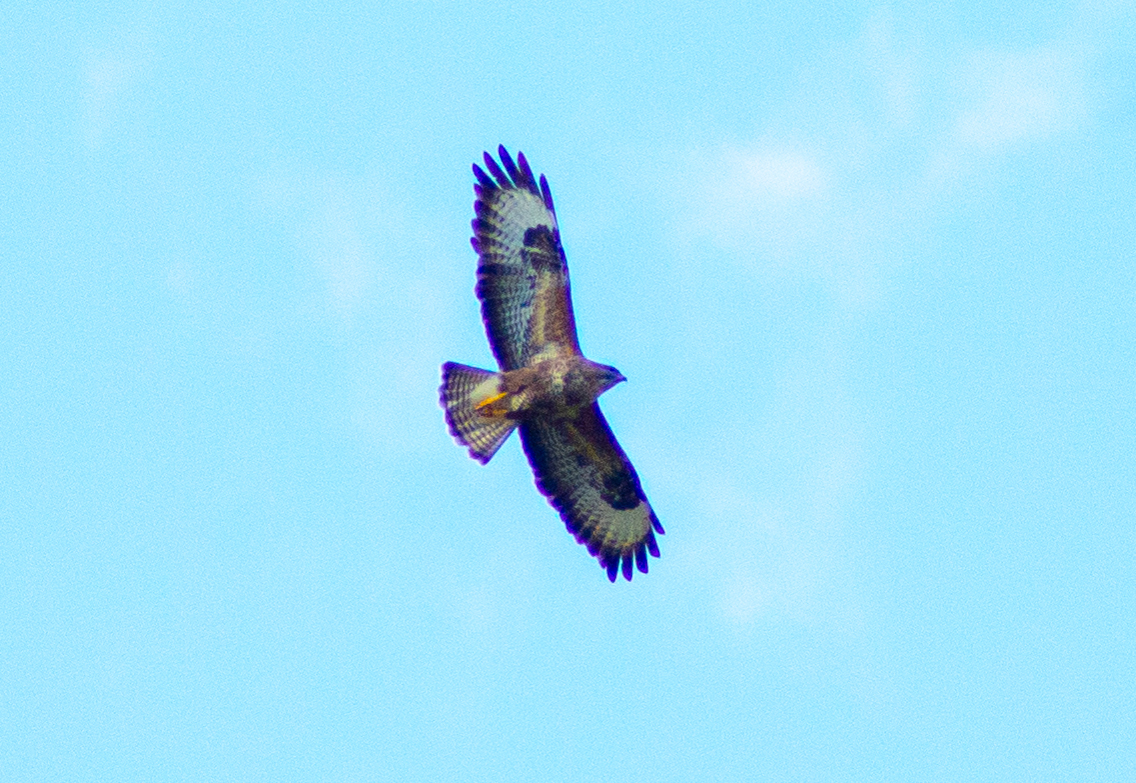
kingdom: Animalia
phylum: Chordata
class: Aves
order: Accipitriformes
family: Accipitridae
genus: Buteo
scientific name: Buteo buteo
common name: Common buzzard
